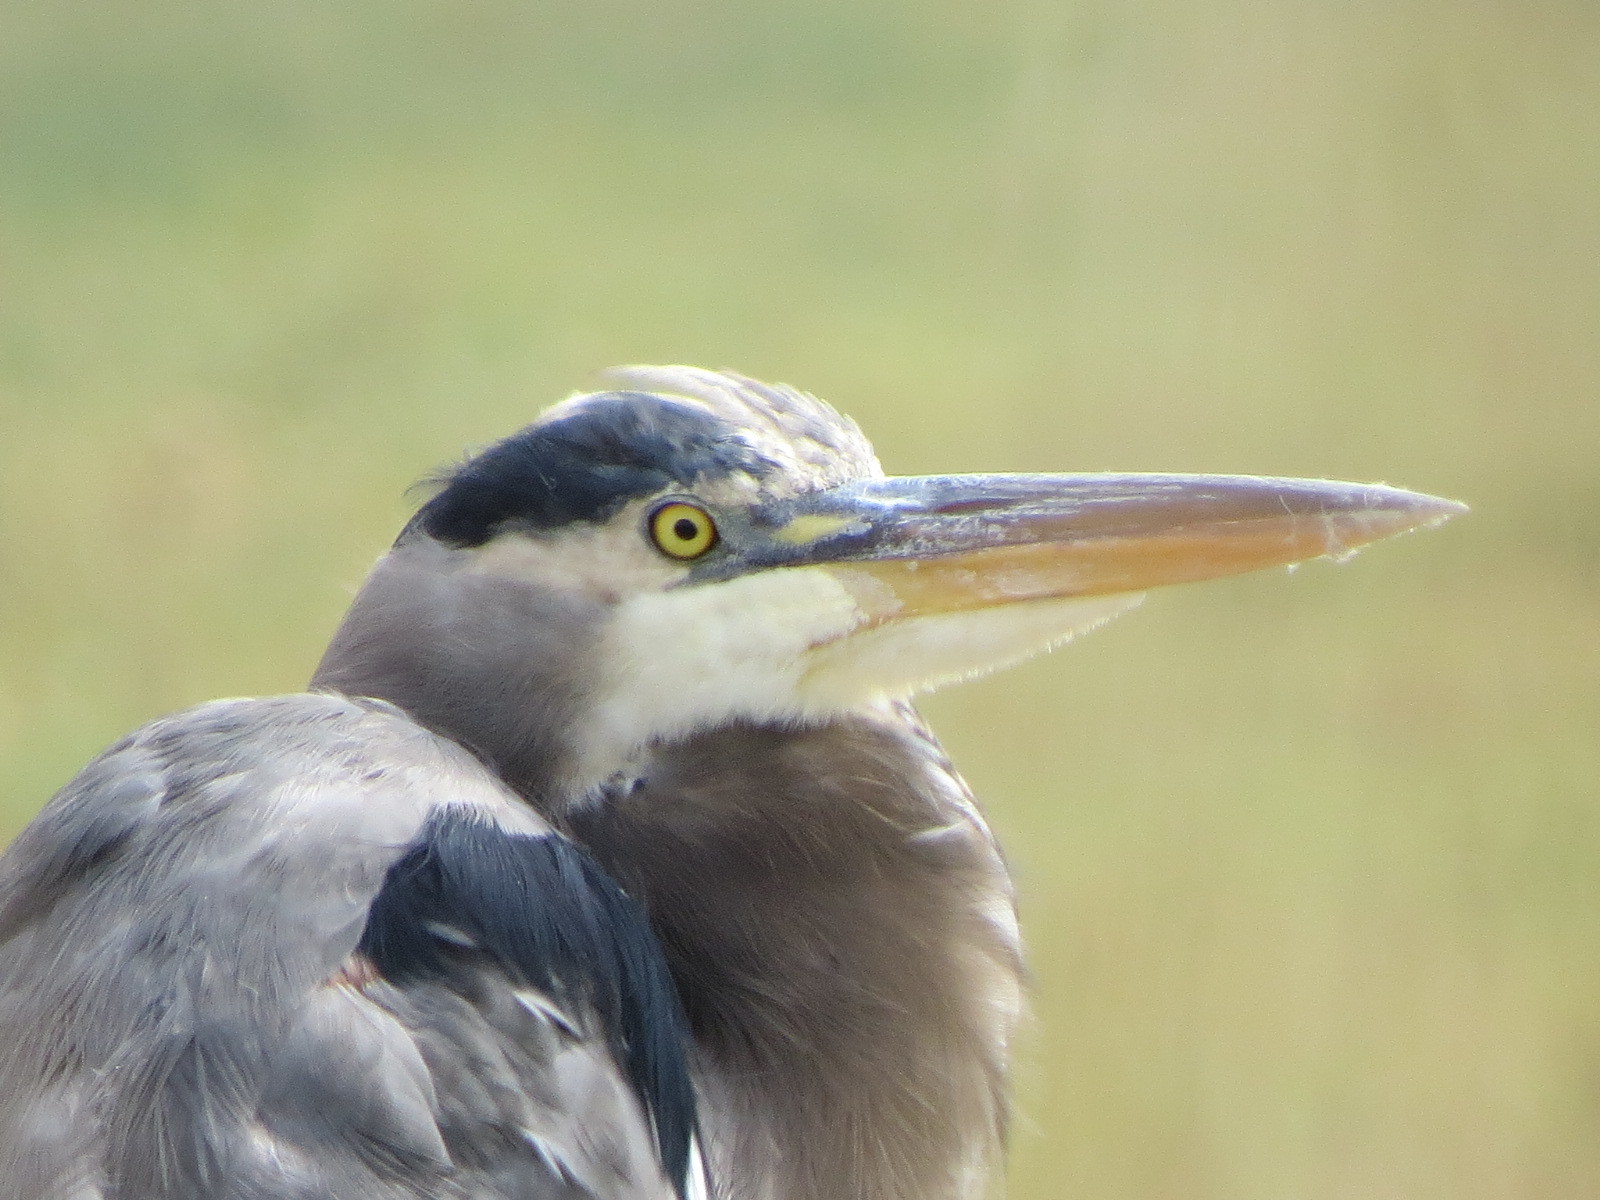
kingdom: Animalia
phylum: Chordata
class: Aves
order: Pelecaniformes
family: Ardeidae
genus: Ardea
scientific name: Ardea herodias
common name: Great blue heron
